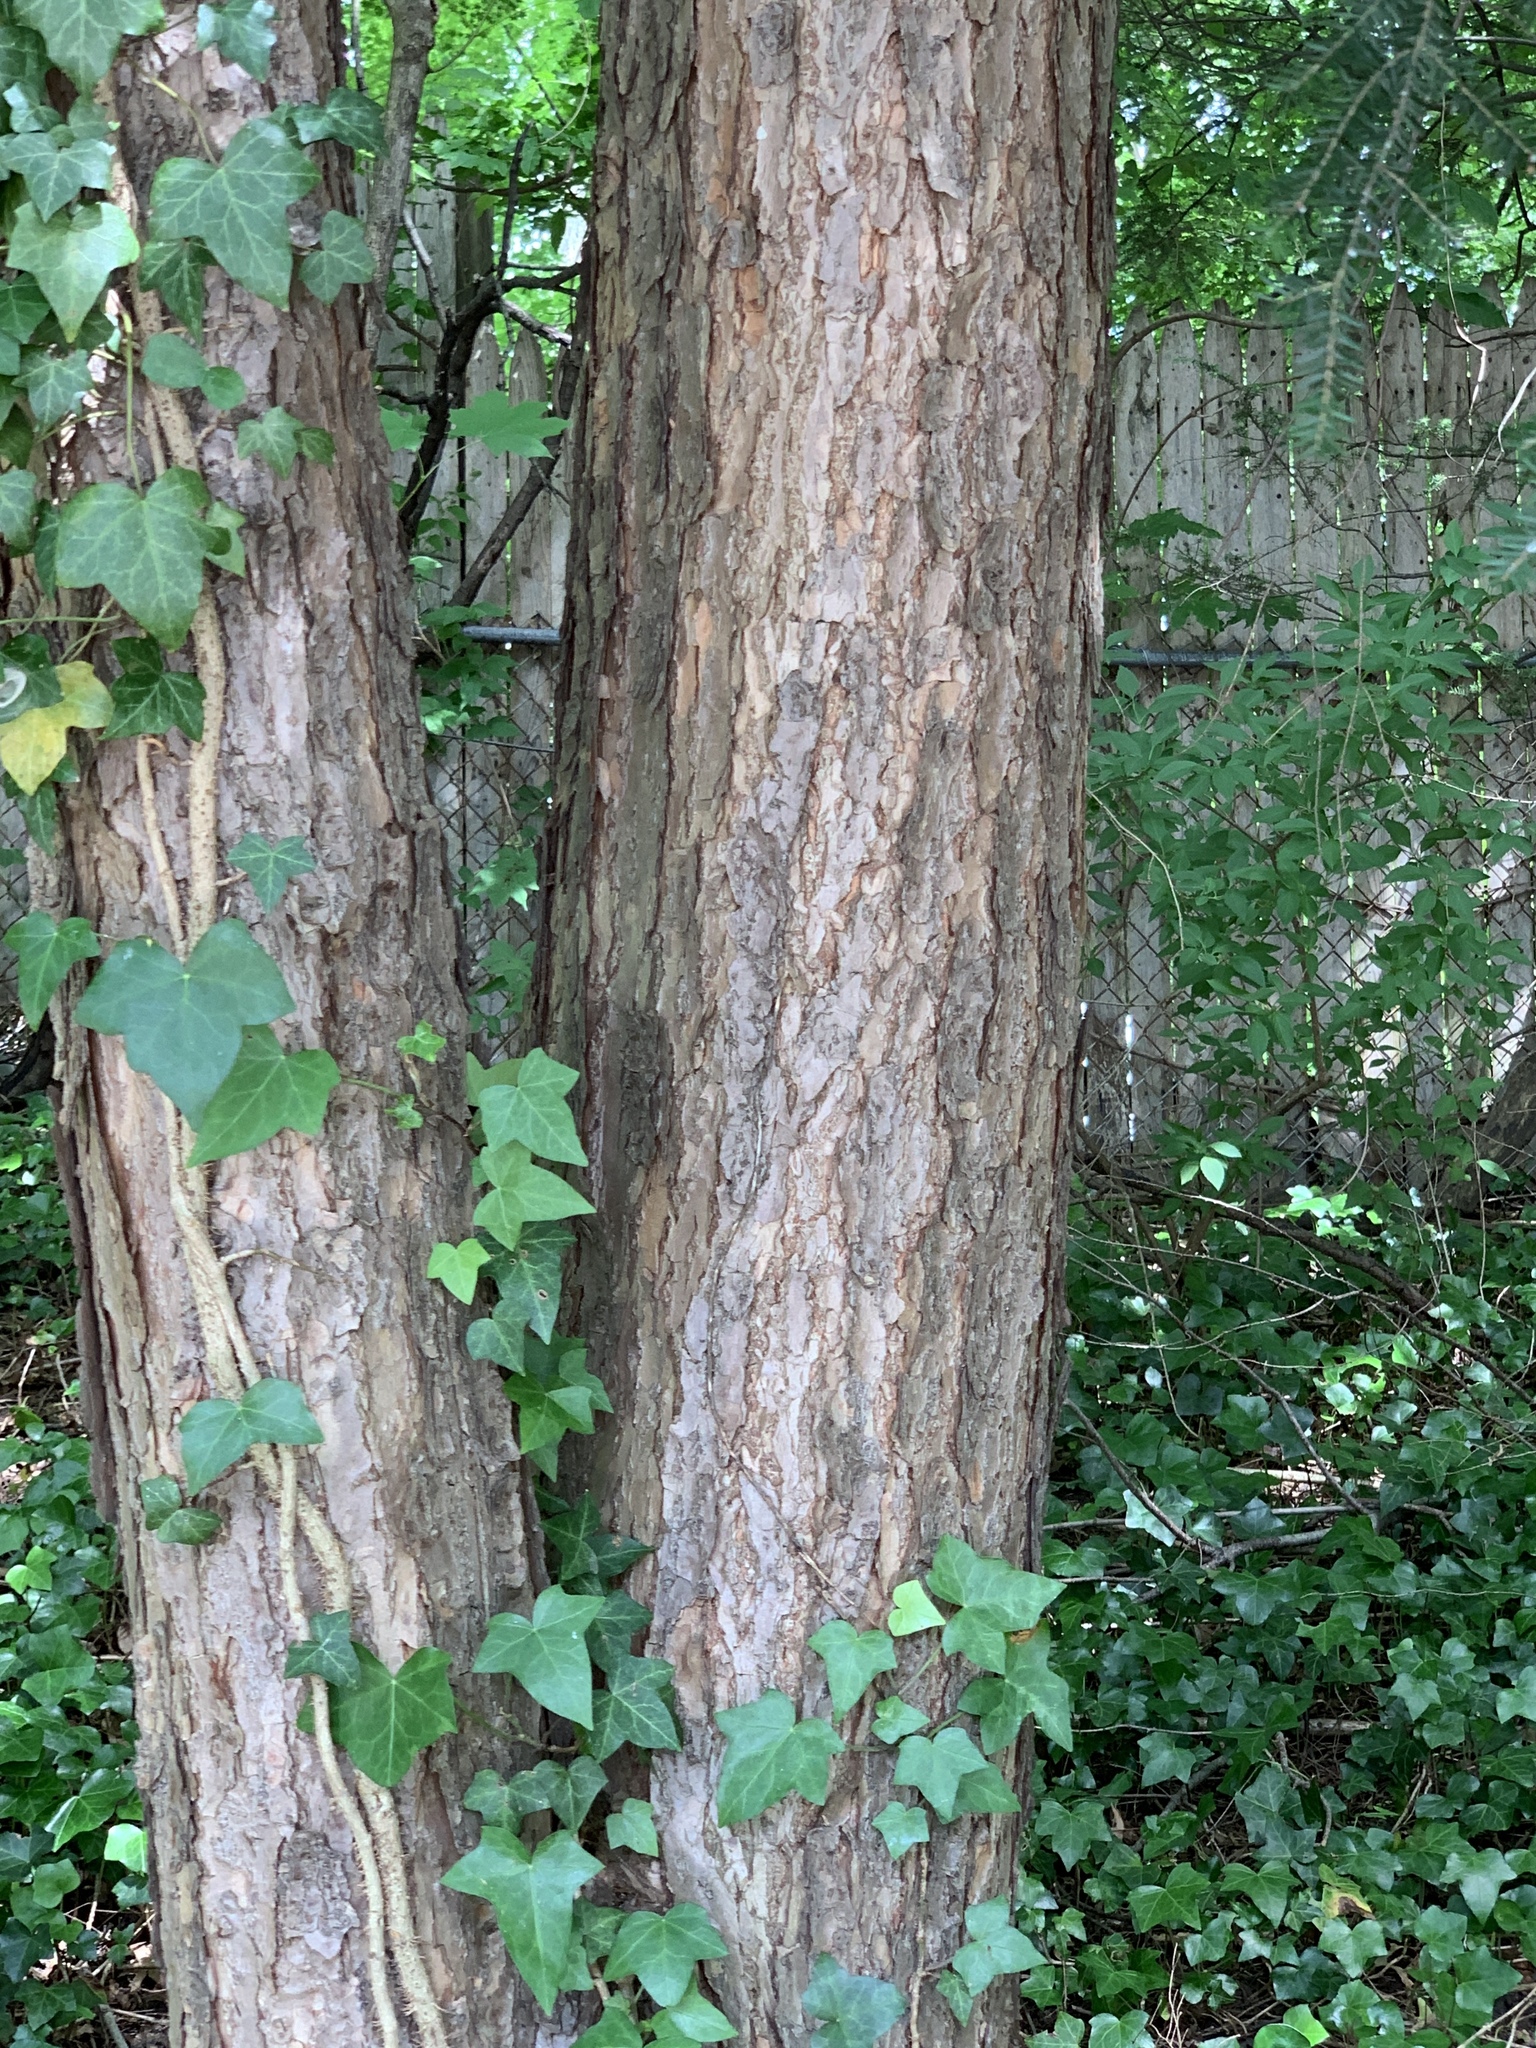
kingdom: Plantae
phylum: Tracheophyta
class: Pinopsida
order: Pinales
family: Pinaceae
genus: Tsuga
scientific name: Tsuga canadensis
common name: Eastern hemlock
